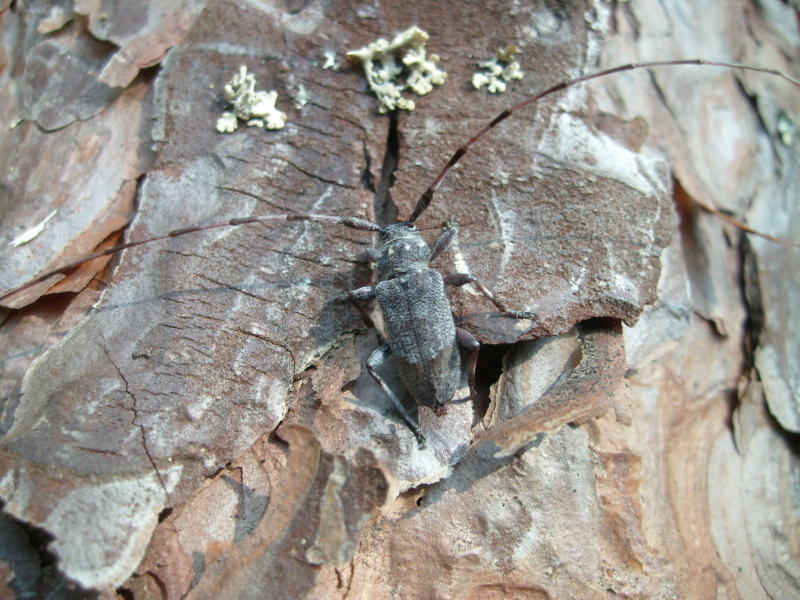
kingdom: Animalia
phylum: Arthropoda
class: Insecta
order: Coleoptera
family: Cerambycidae
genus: Acanthocinus
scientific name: Acanthocinus aedilis
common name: Timberman beetle
